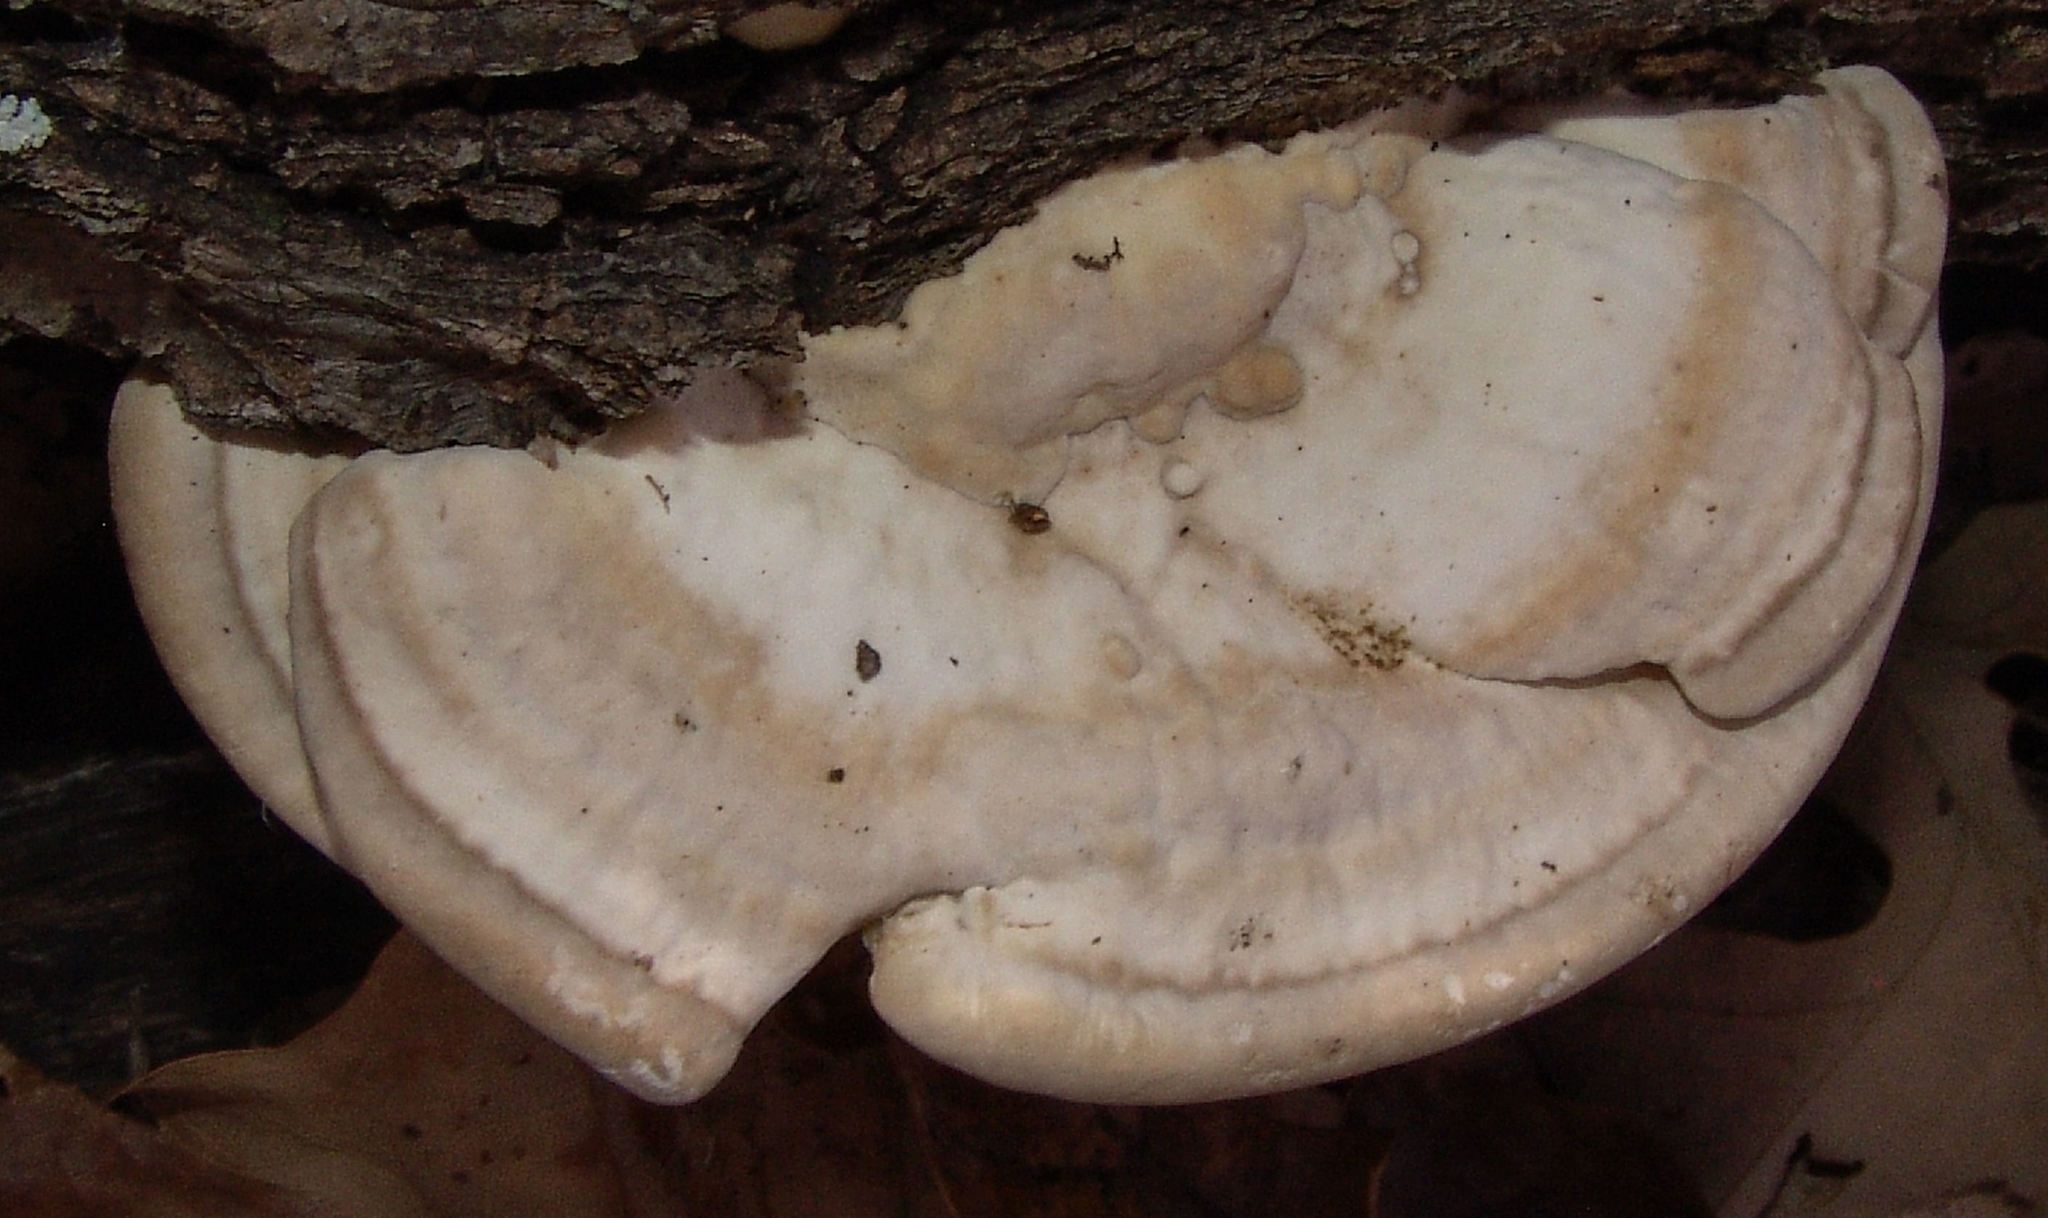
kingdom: Fungi
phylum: Basidiomycota
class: Agaricomycetes
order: Polyporales
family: Polyporaceae
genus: Trametes
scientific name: Trametes lactinea
